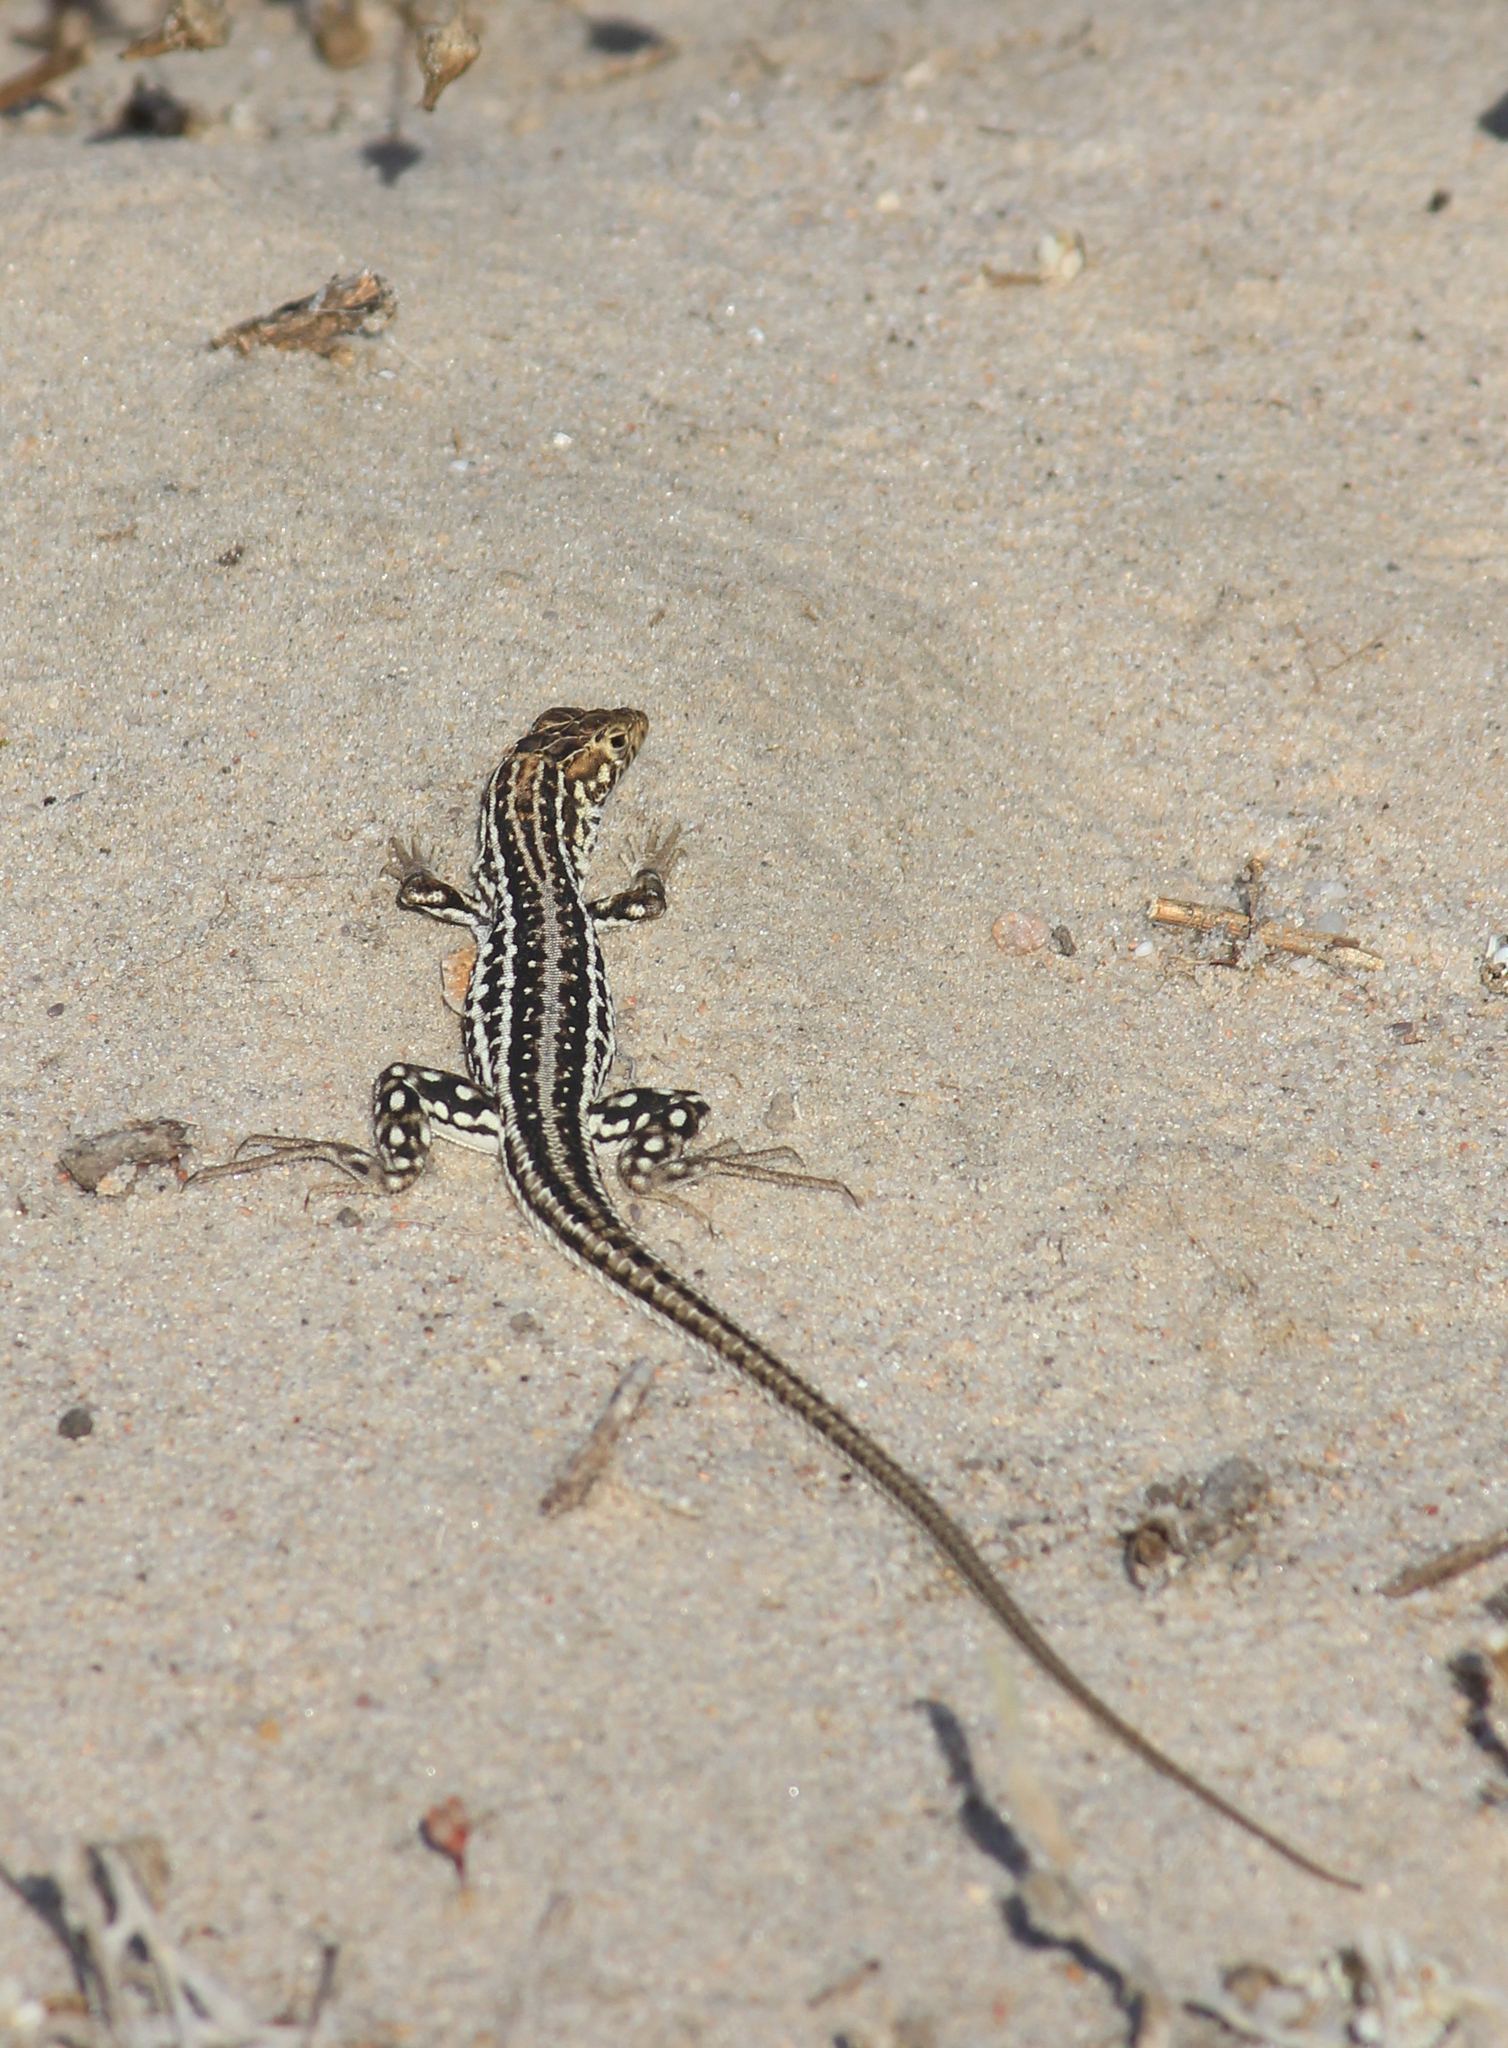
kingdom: Animalia
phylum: Chordata
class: Squamata
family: Lacertidae
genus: Meroles
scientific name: Meroles knoxii
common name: Knox's desert lizard
